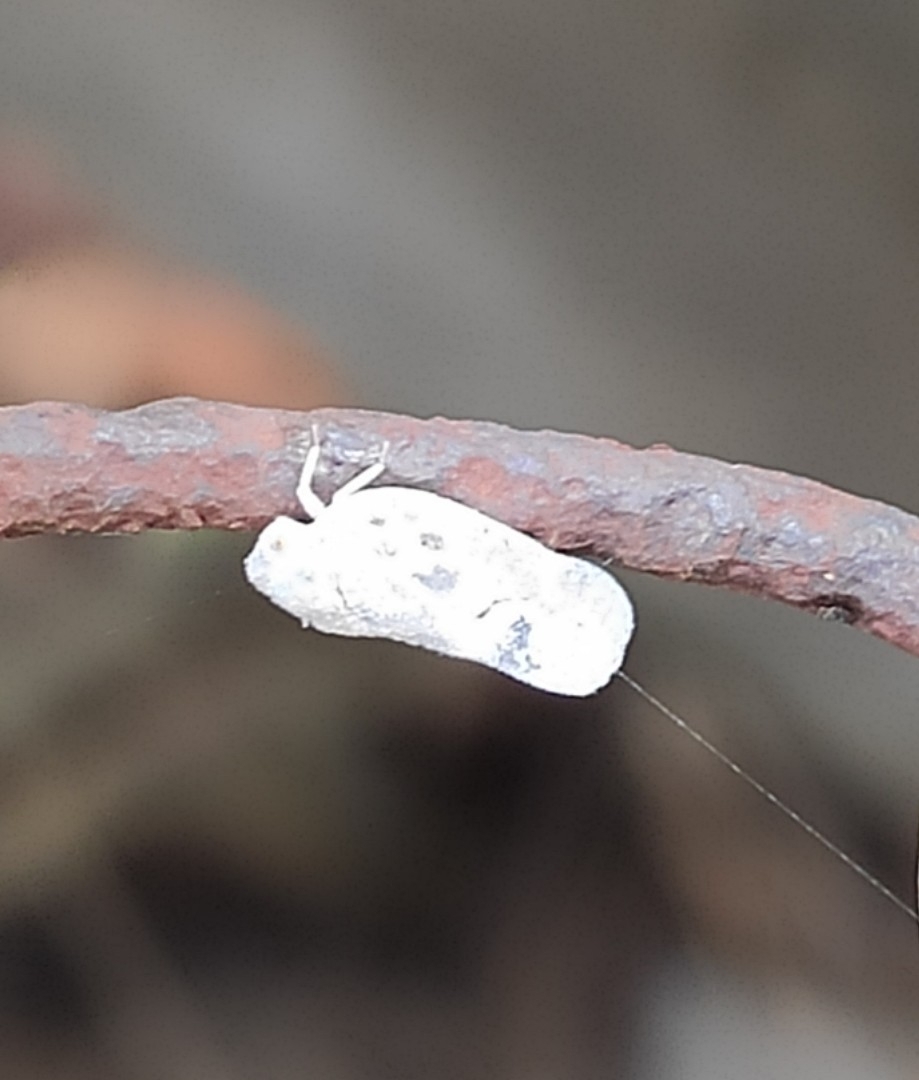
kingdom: Animalia
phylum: Arthropoda
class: Insecta
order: Hemiptera
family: Flatidae
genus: Metcalfa
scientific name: Metcalfa pruinosa
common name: Citrus flatid planthopper
